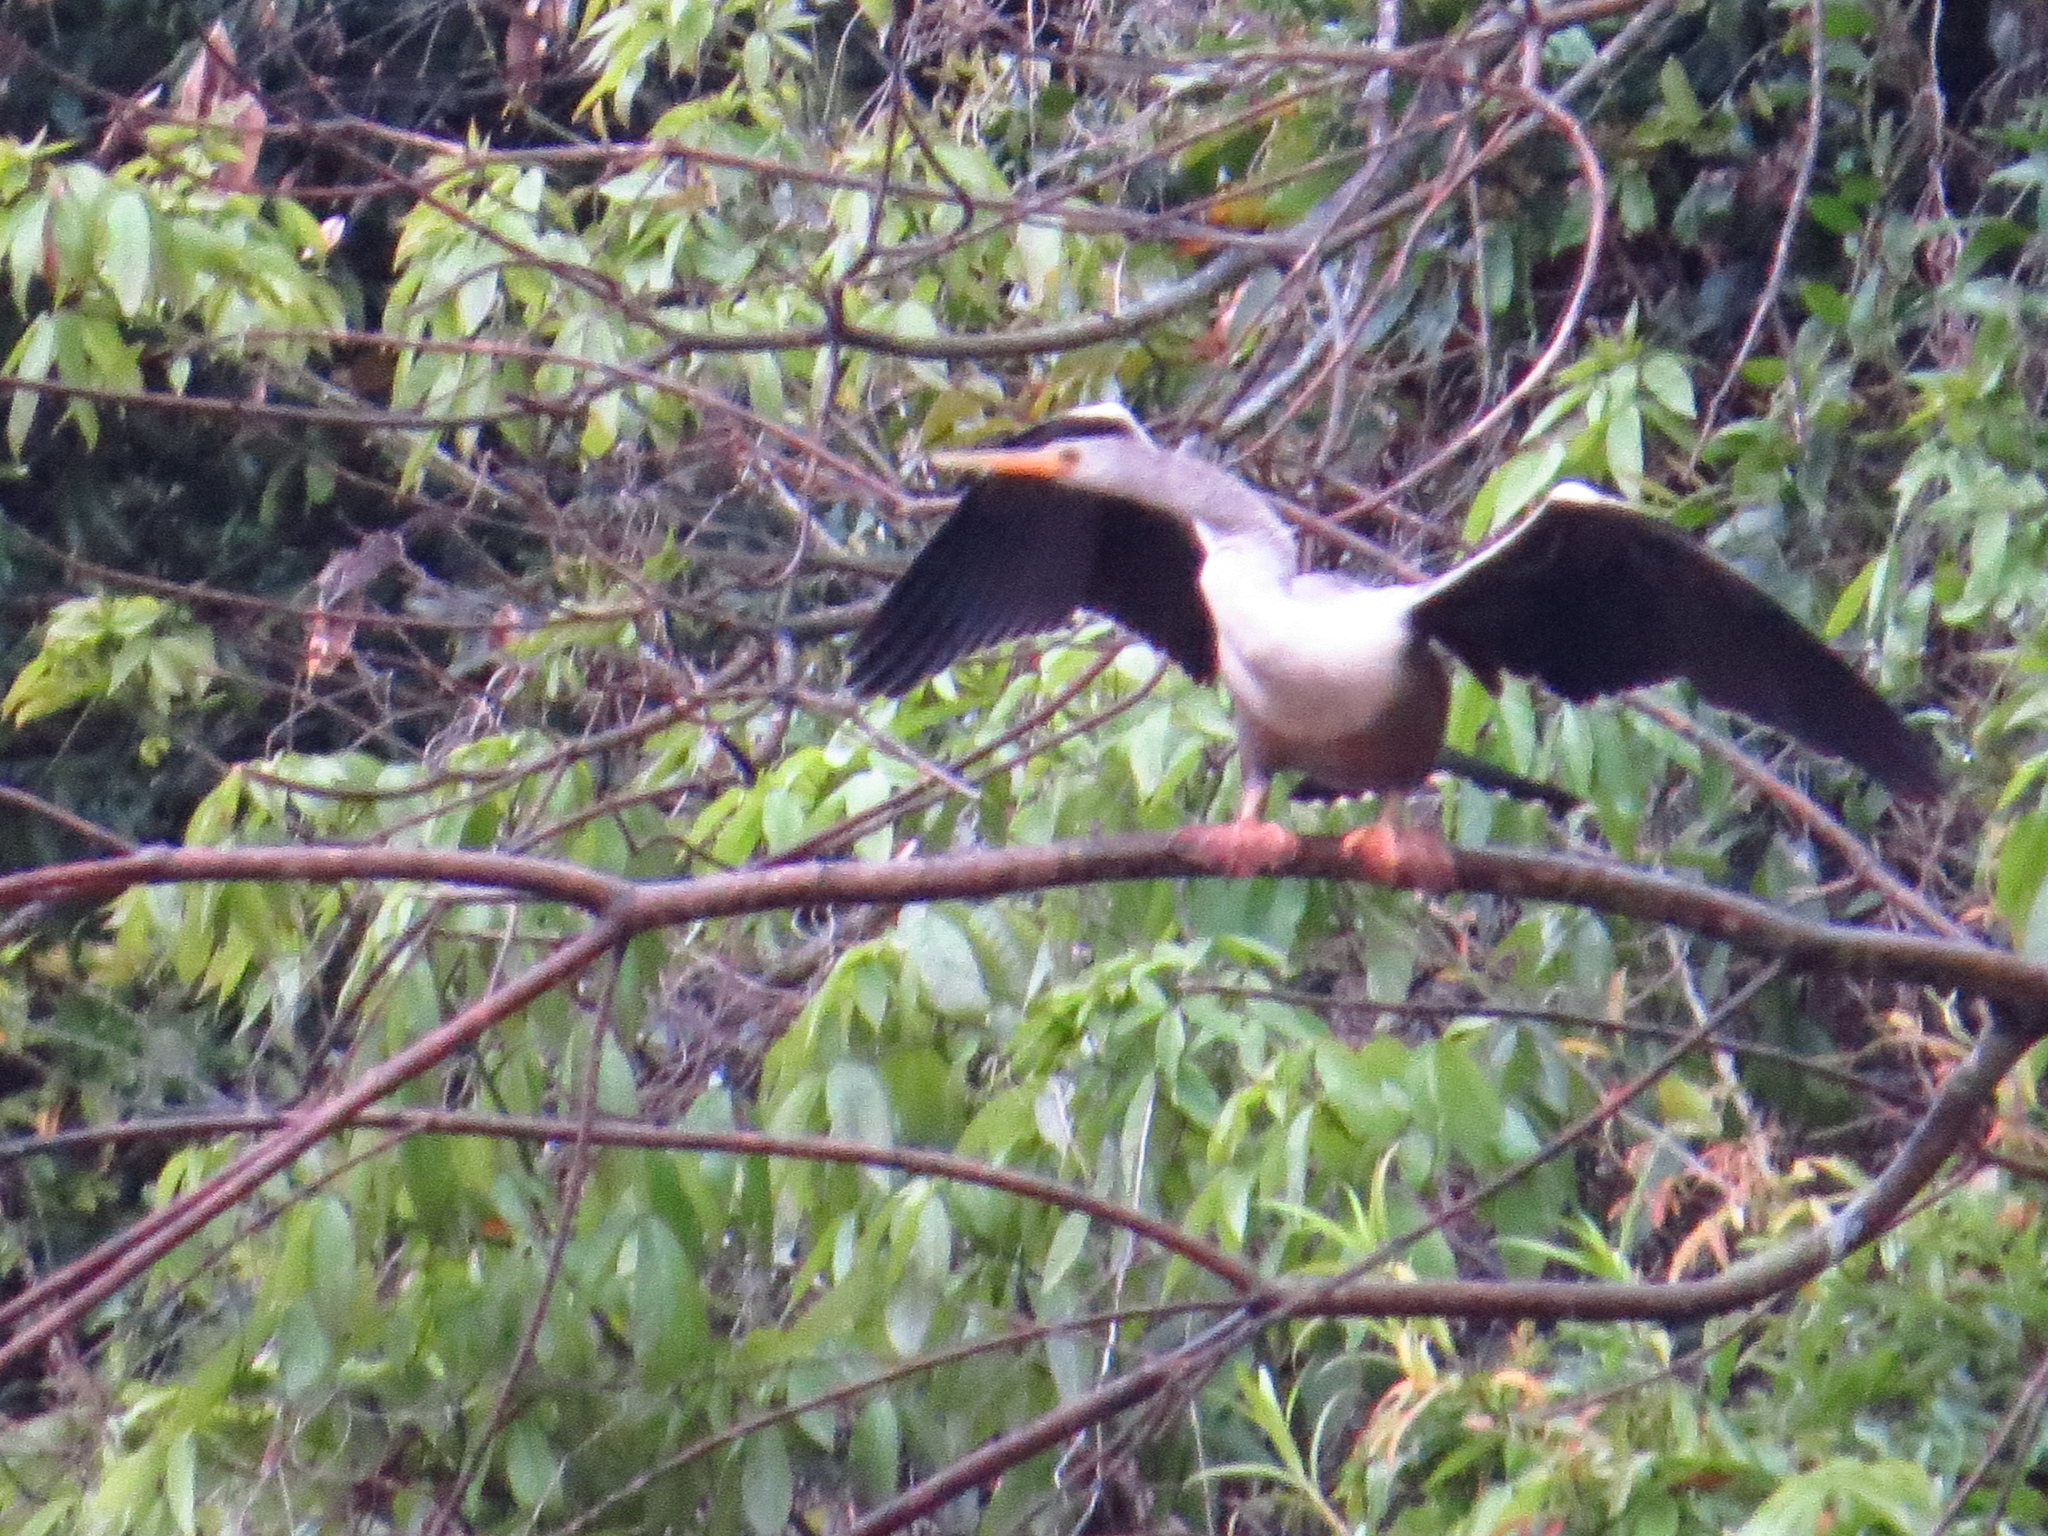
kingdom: Animalia
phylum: Chordata
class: Aves
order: Suliformes
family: Anhingidae
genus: Anhinga
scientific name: Anhinga anhinga
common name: Anhinga
